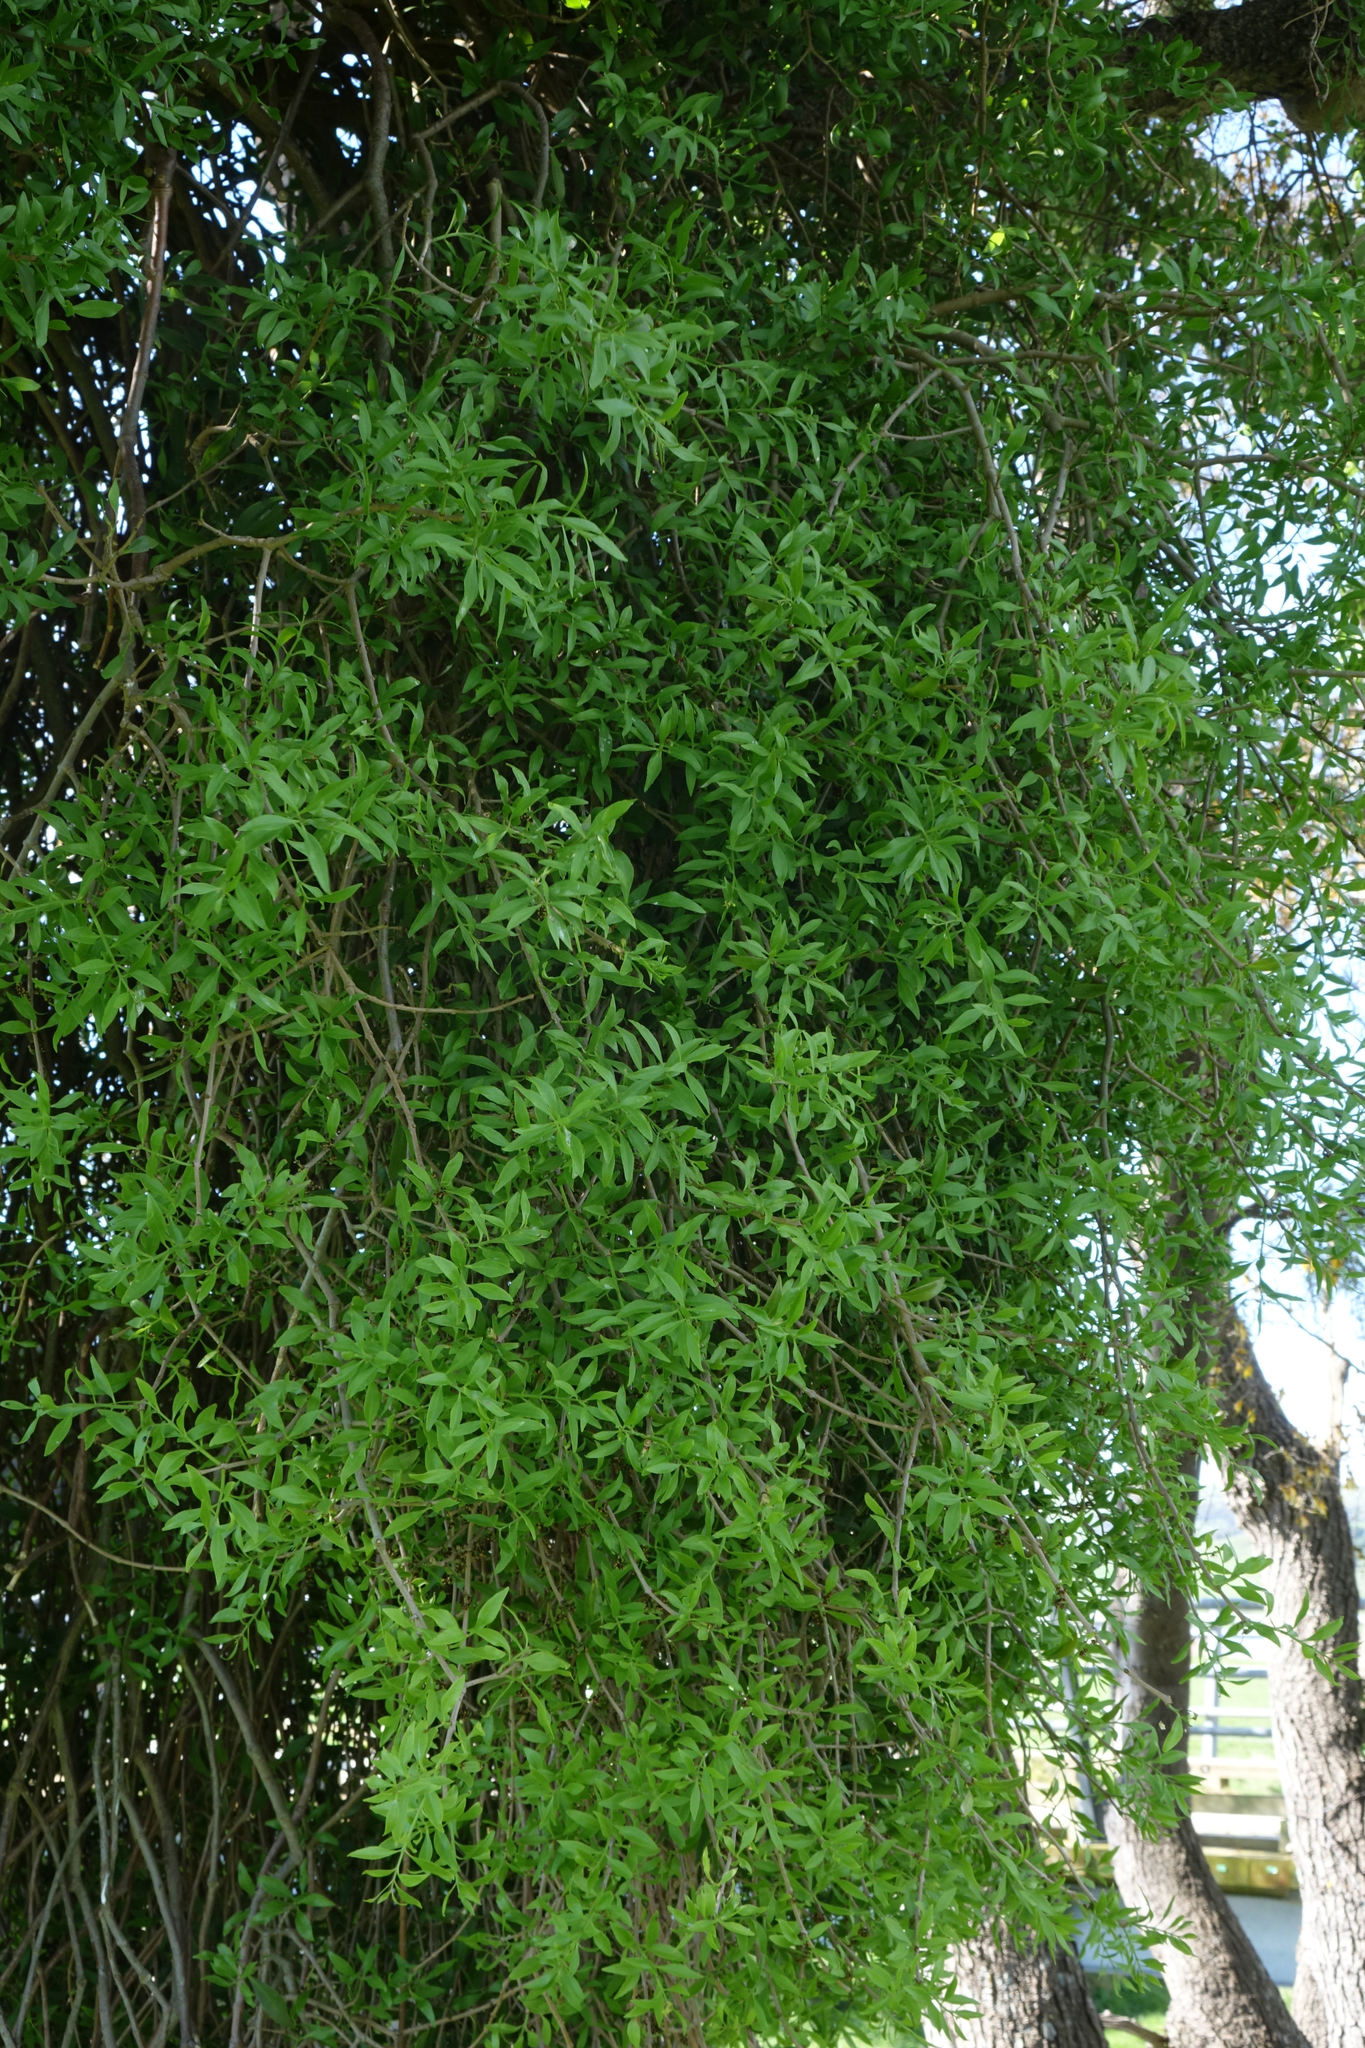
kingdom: Plantae
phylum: Tracheophyta
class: Magnoliopsida
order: Santalales
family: Loranthaceae
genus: Tupeia
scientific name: Tupeia antarctica
